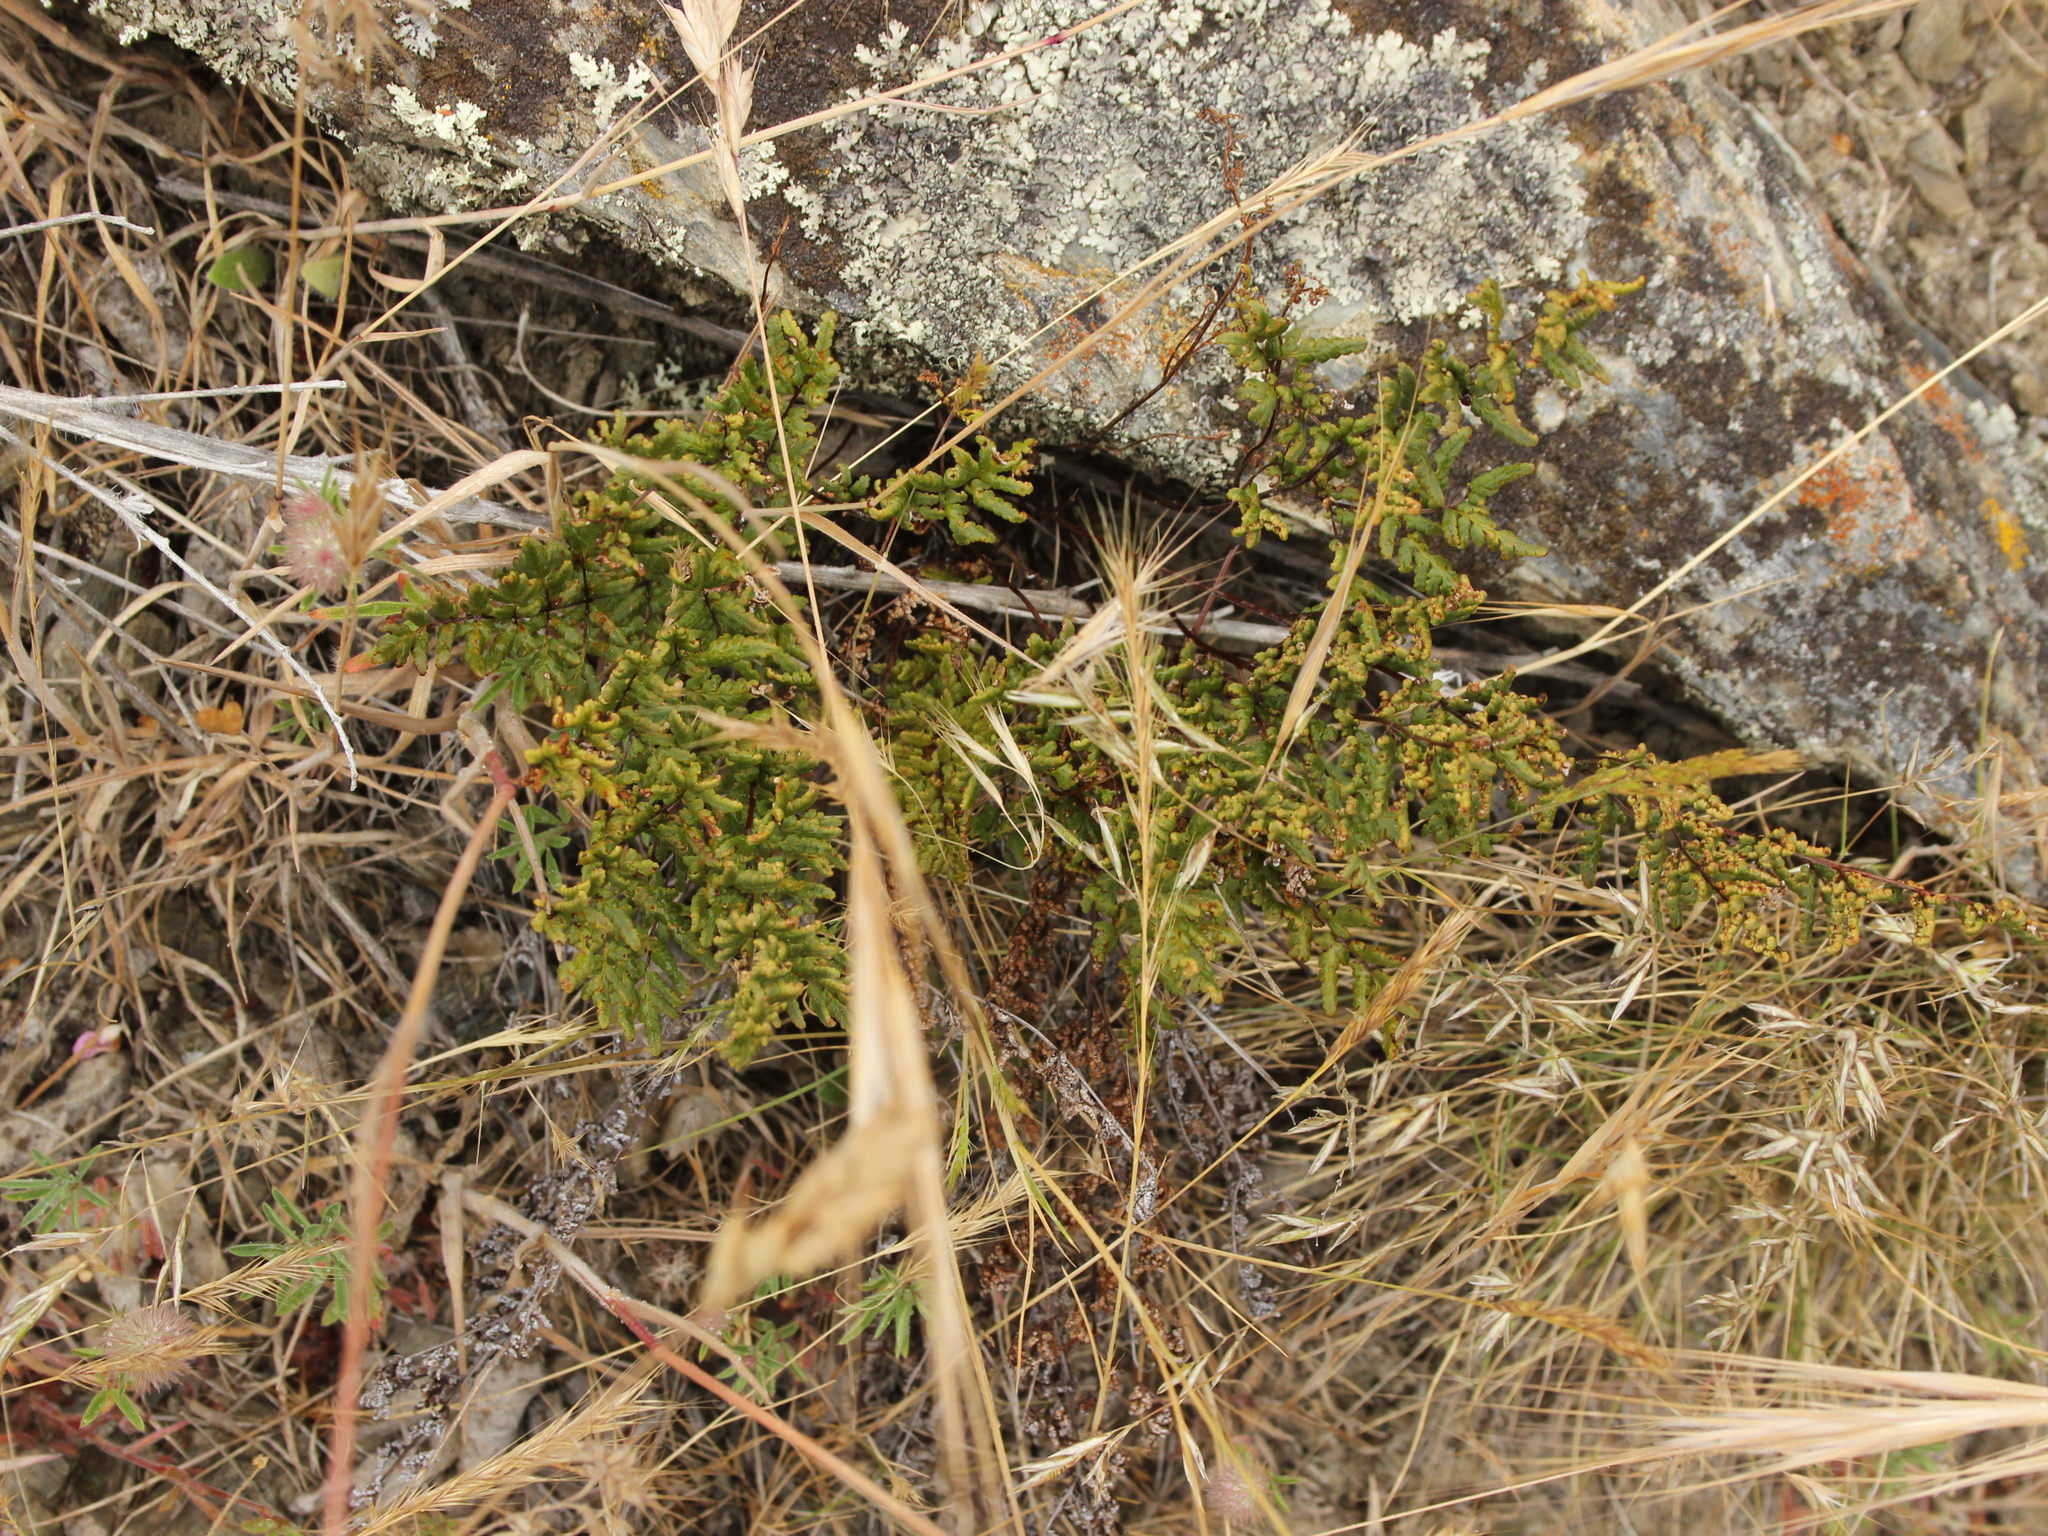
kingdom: Plantae
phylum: Tracheophyta
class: Polypodiopsida
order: Polypodiales
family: Pteridaceae
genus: Cheilanthes
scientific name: Cheilanthes sieberi
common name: Mulga fern
